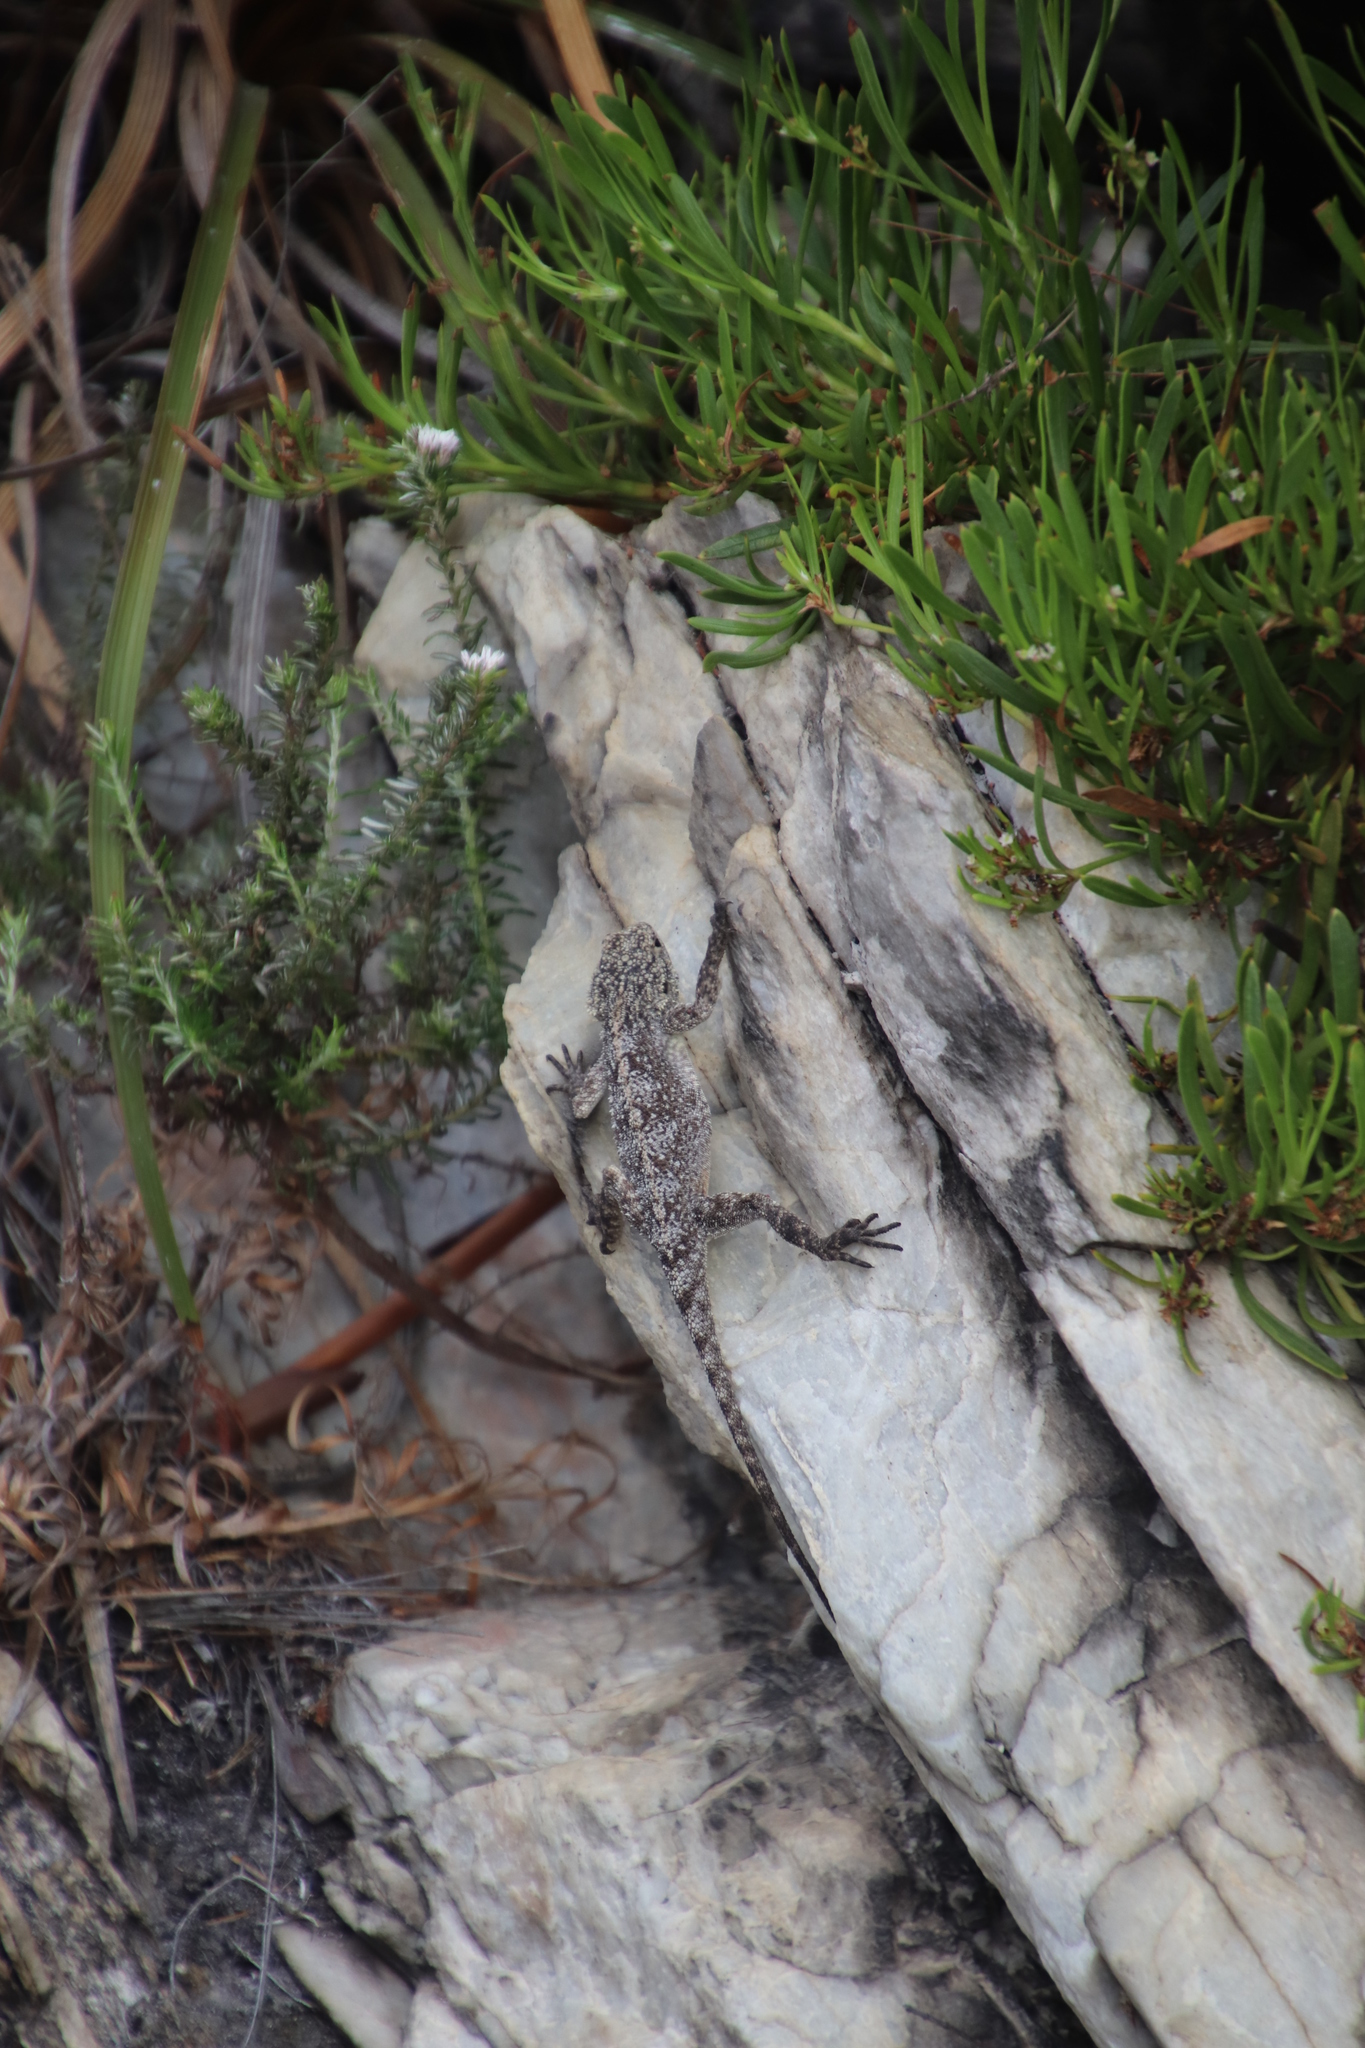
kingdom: Animalia
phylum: Chordata
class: Squamata
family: Agamidae
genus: Agama
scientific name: Agama atra
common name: Southern african rock agama
